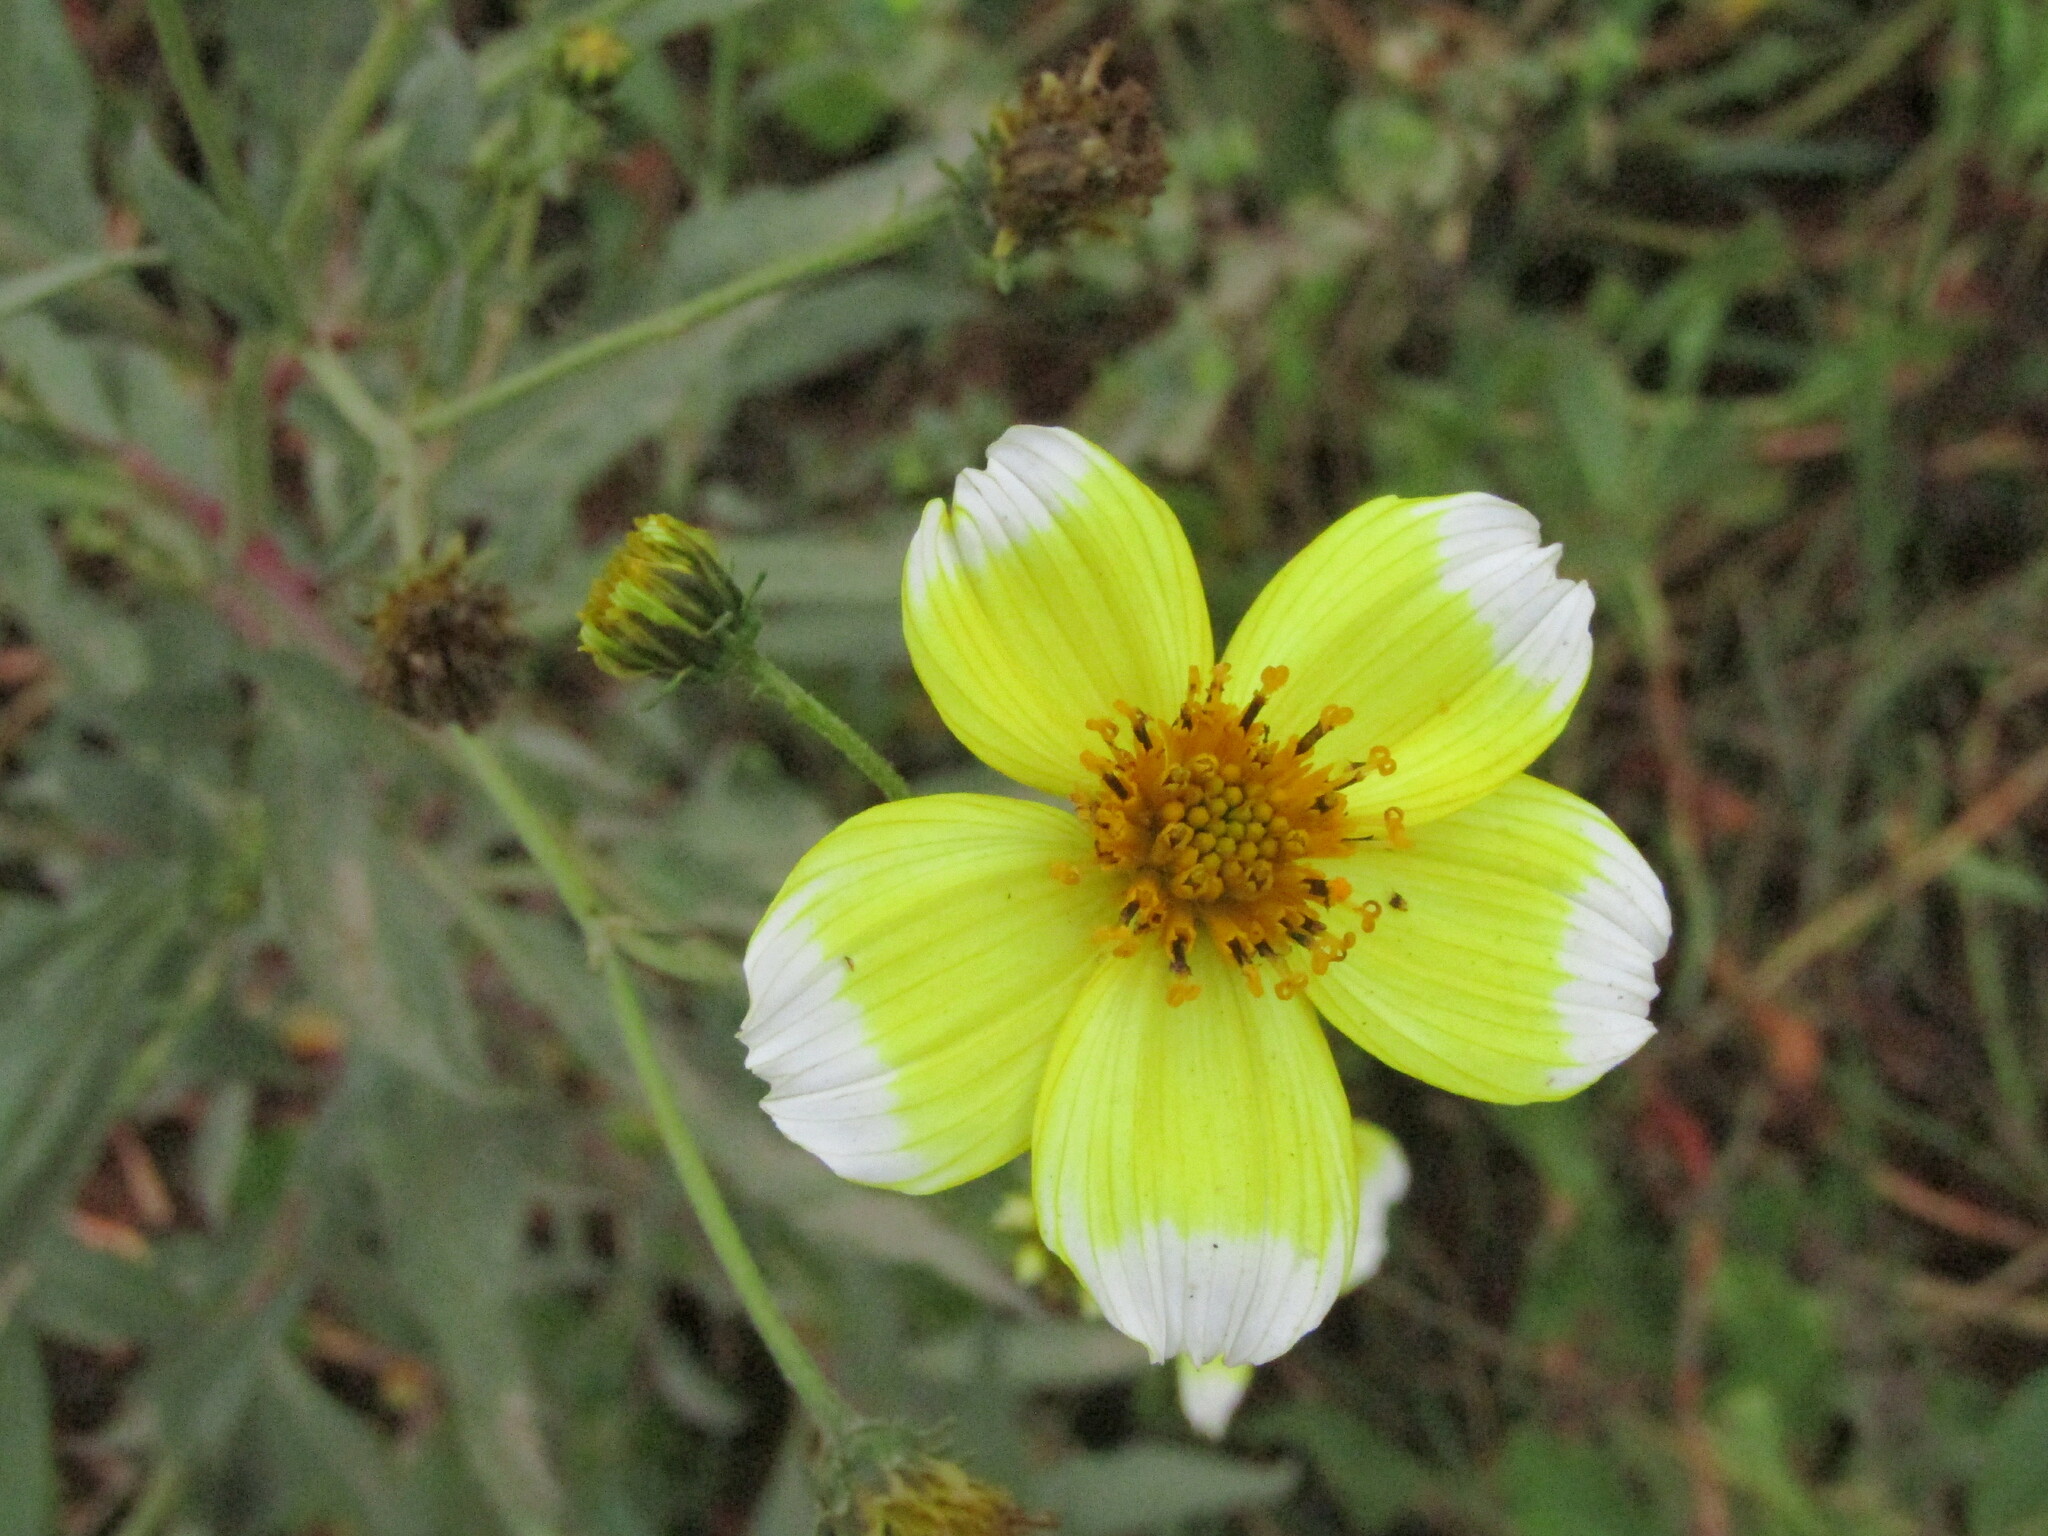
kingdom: Plantae
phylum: Tracheophyta
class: Magnoliopsida
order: Asterales
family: Asteraceae
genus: Bidens
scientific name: Bidens aurea
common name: Arizona beggar-ticks
